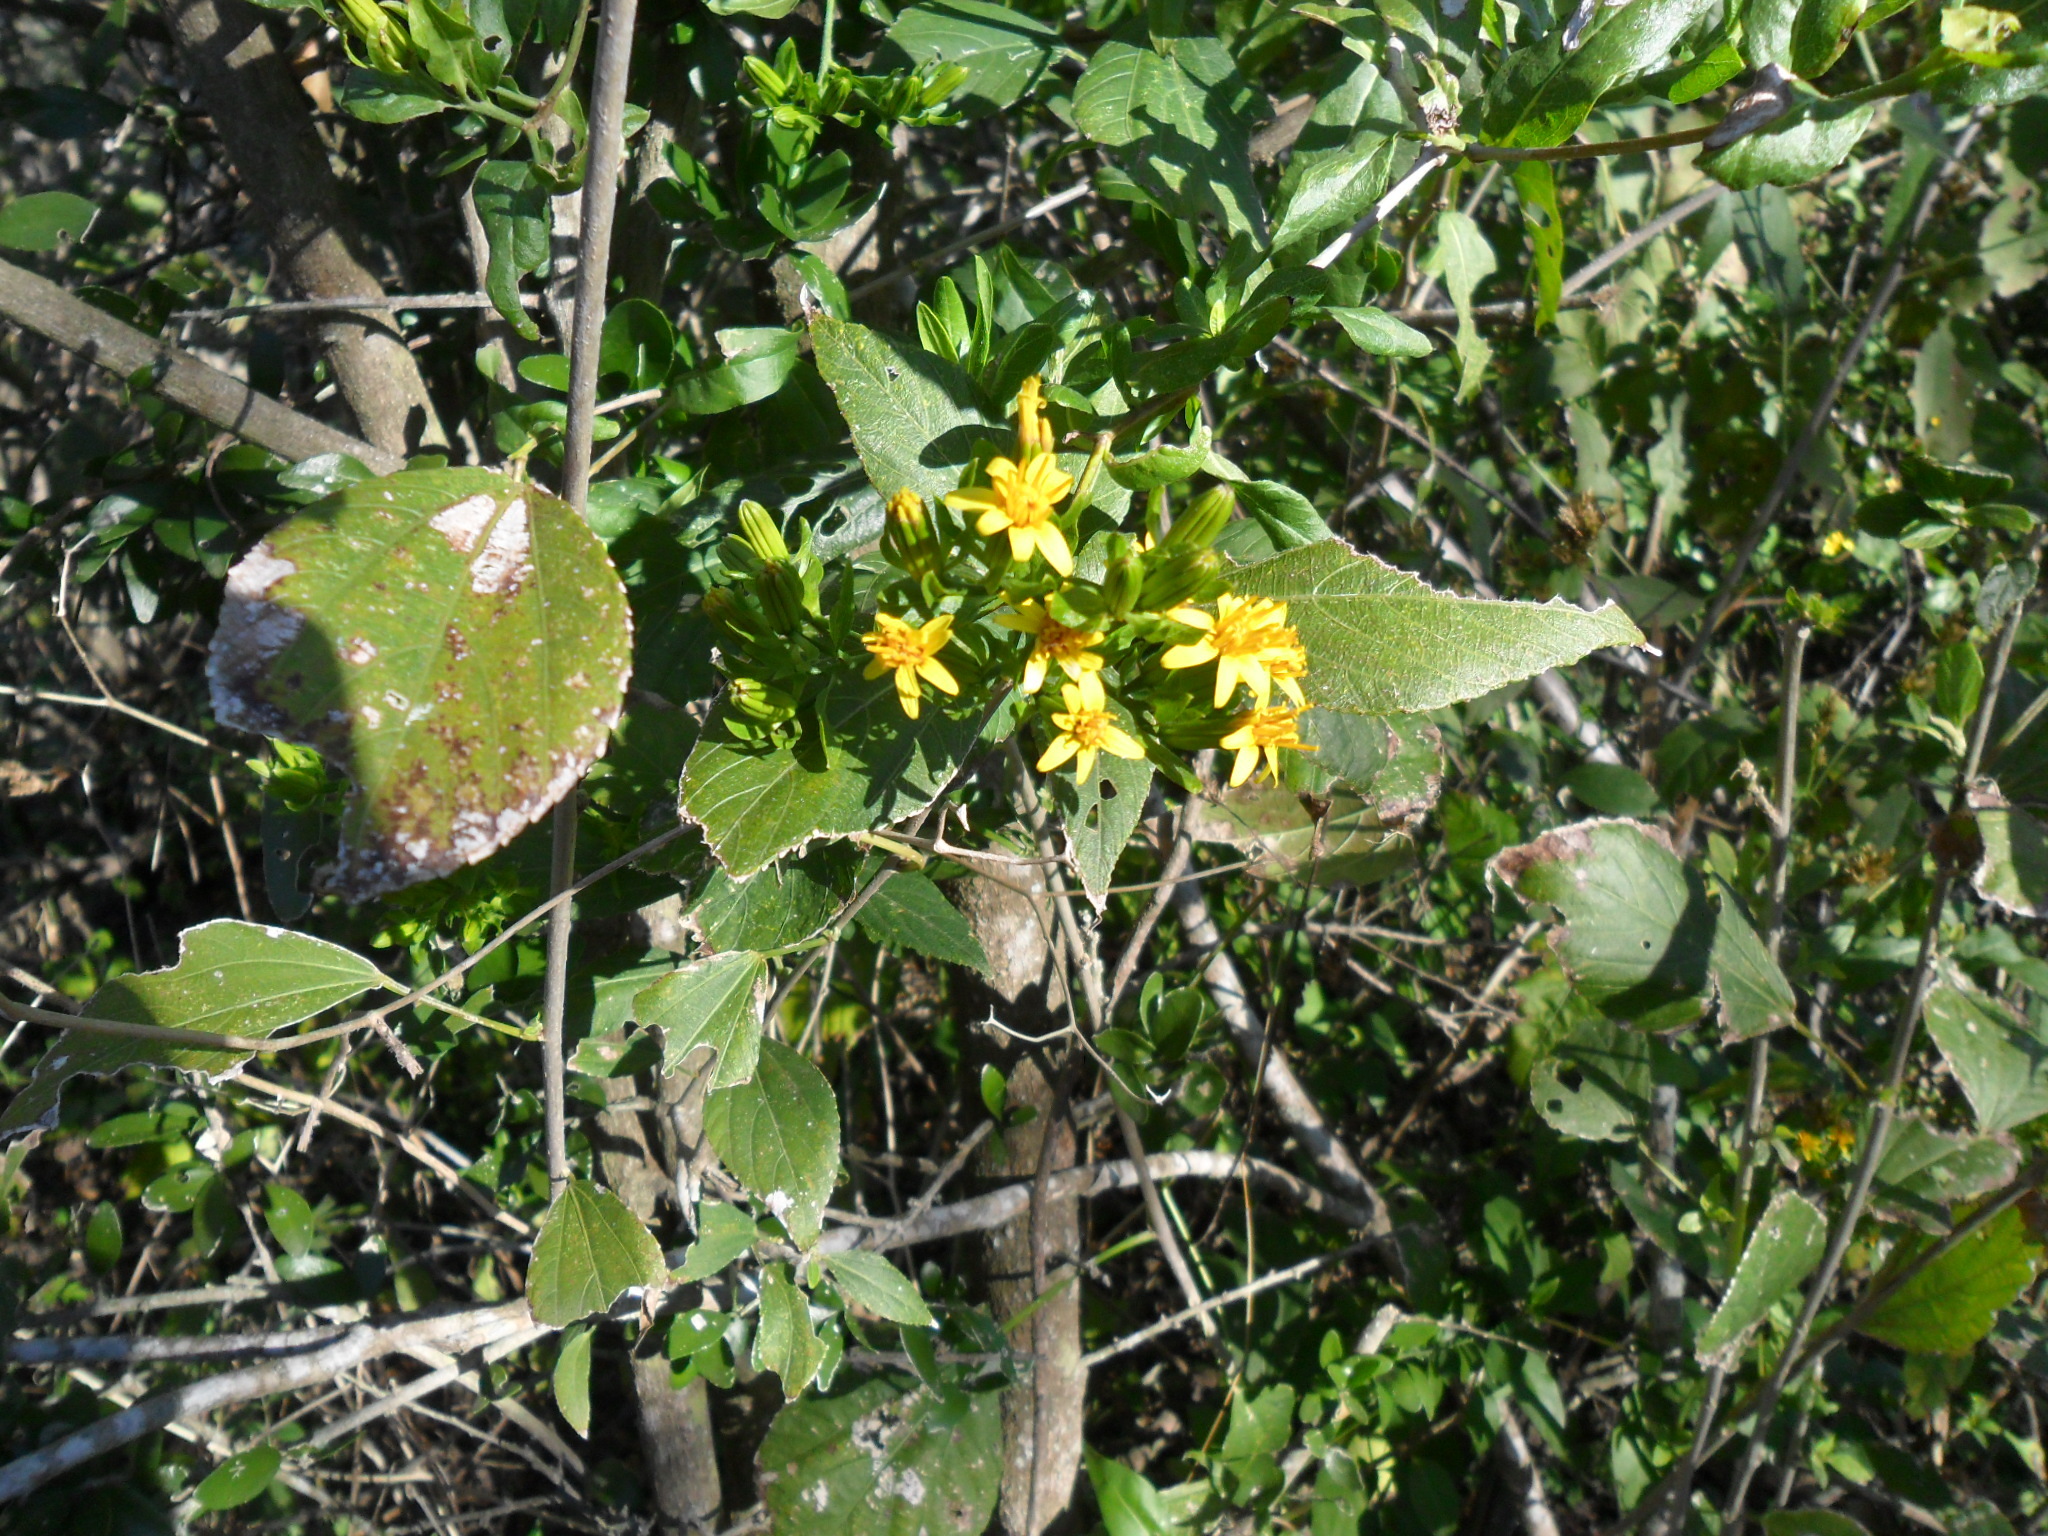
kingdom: Plantae
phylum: Tracheophyta
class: Magnoliopsida
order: Asterales
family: Asteraceae
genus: Trixis
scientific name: Trixis inula
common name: Tropical threefold
